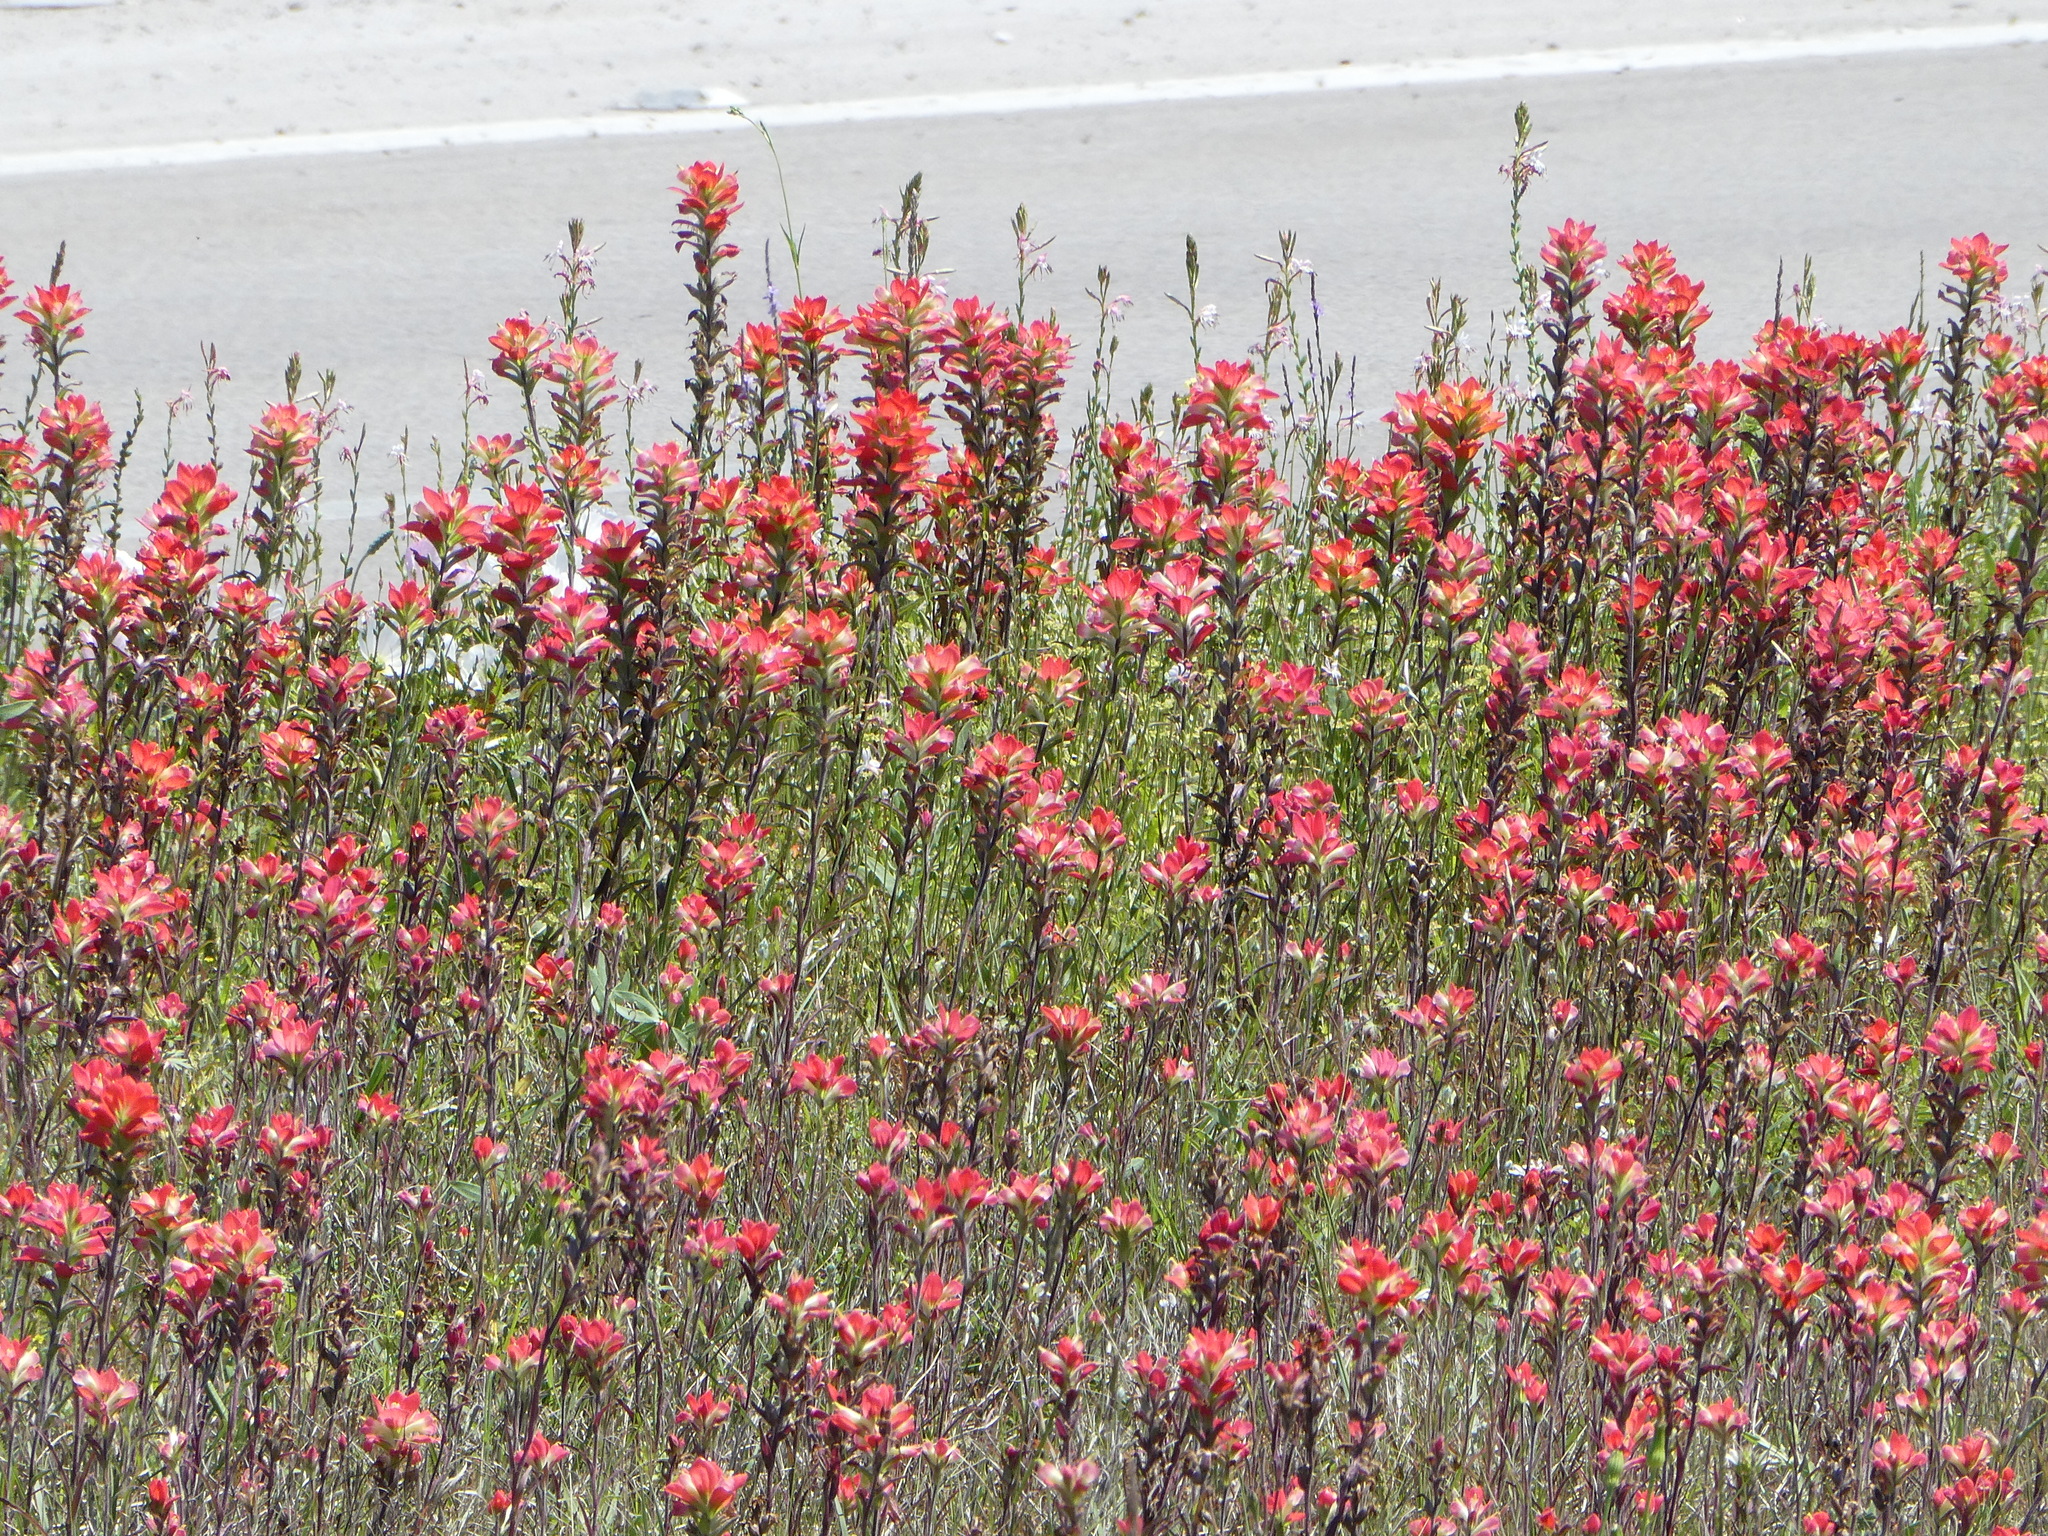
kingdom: Plantae
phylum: Tracheophyta
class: Magnoliopsida
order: Lamiales
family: Orobanchaceae
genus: Castilleja
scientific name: Castilleja indivisa
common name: Texas paintbrush
